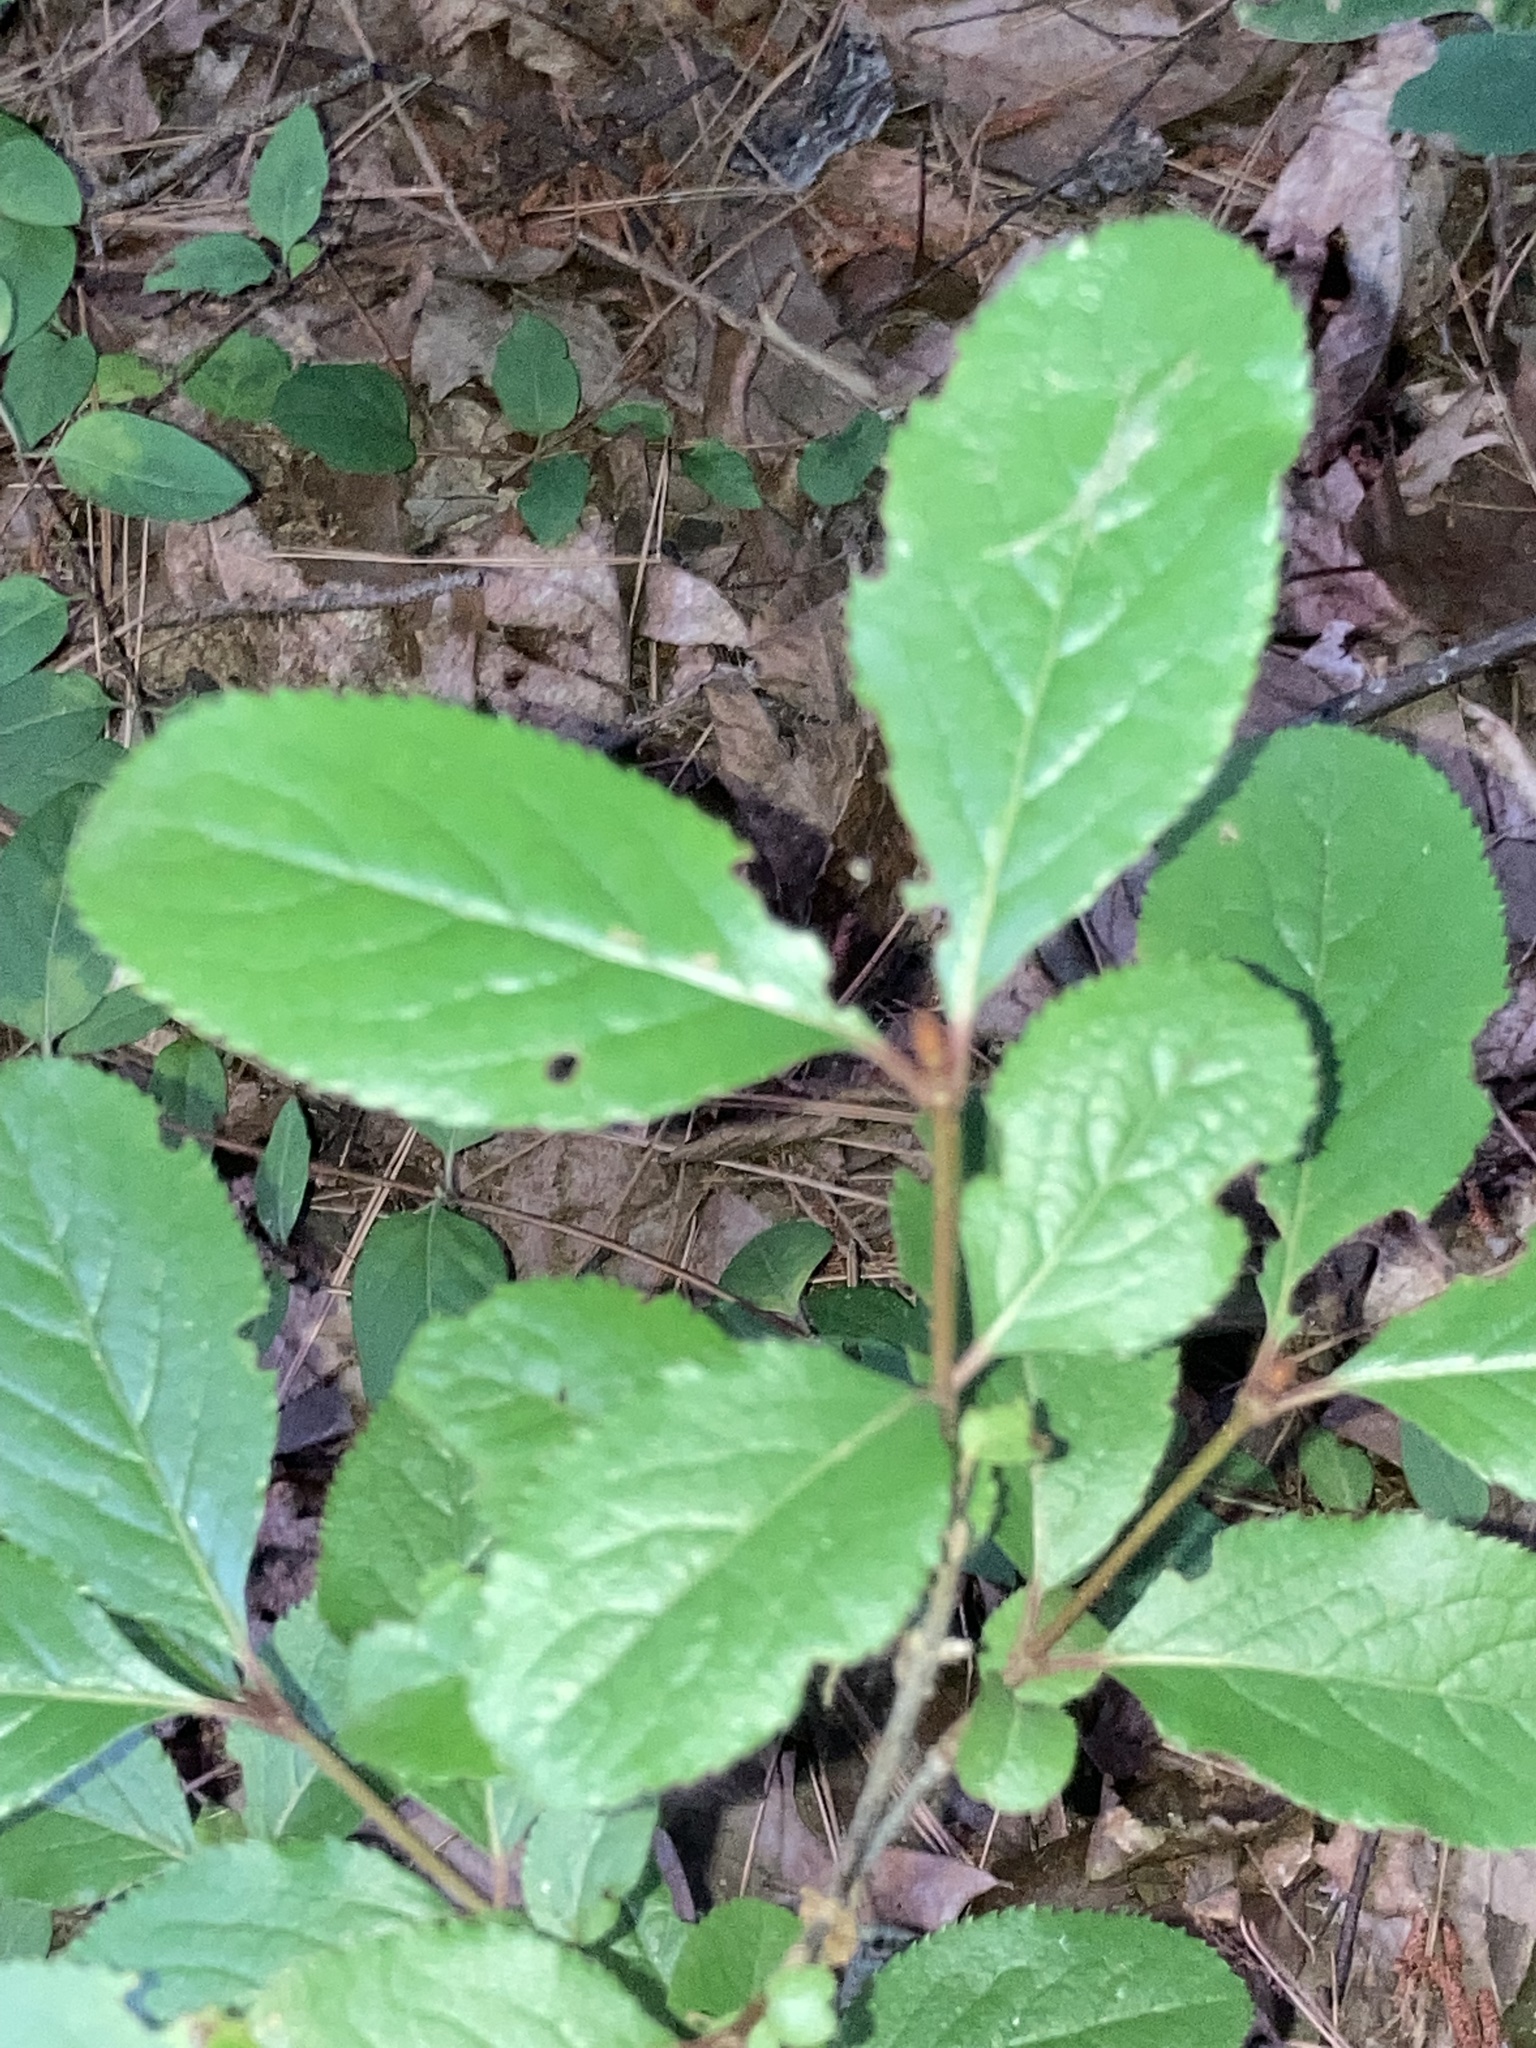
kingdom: Plantae
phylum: Tracheophyta
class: Magnoliopsida
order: Dipsacales
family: Viburnaceae
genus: Viburnum
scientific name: Viburnum rufidulum
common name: Blue haw
